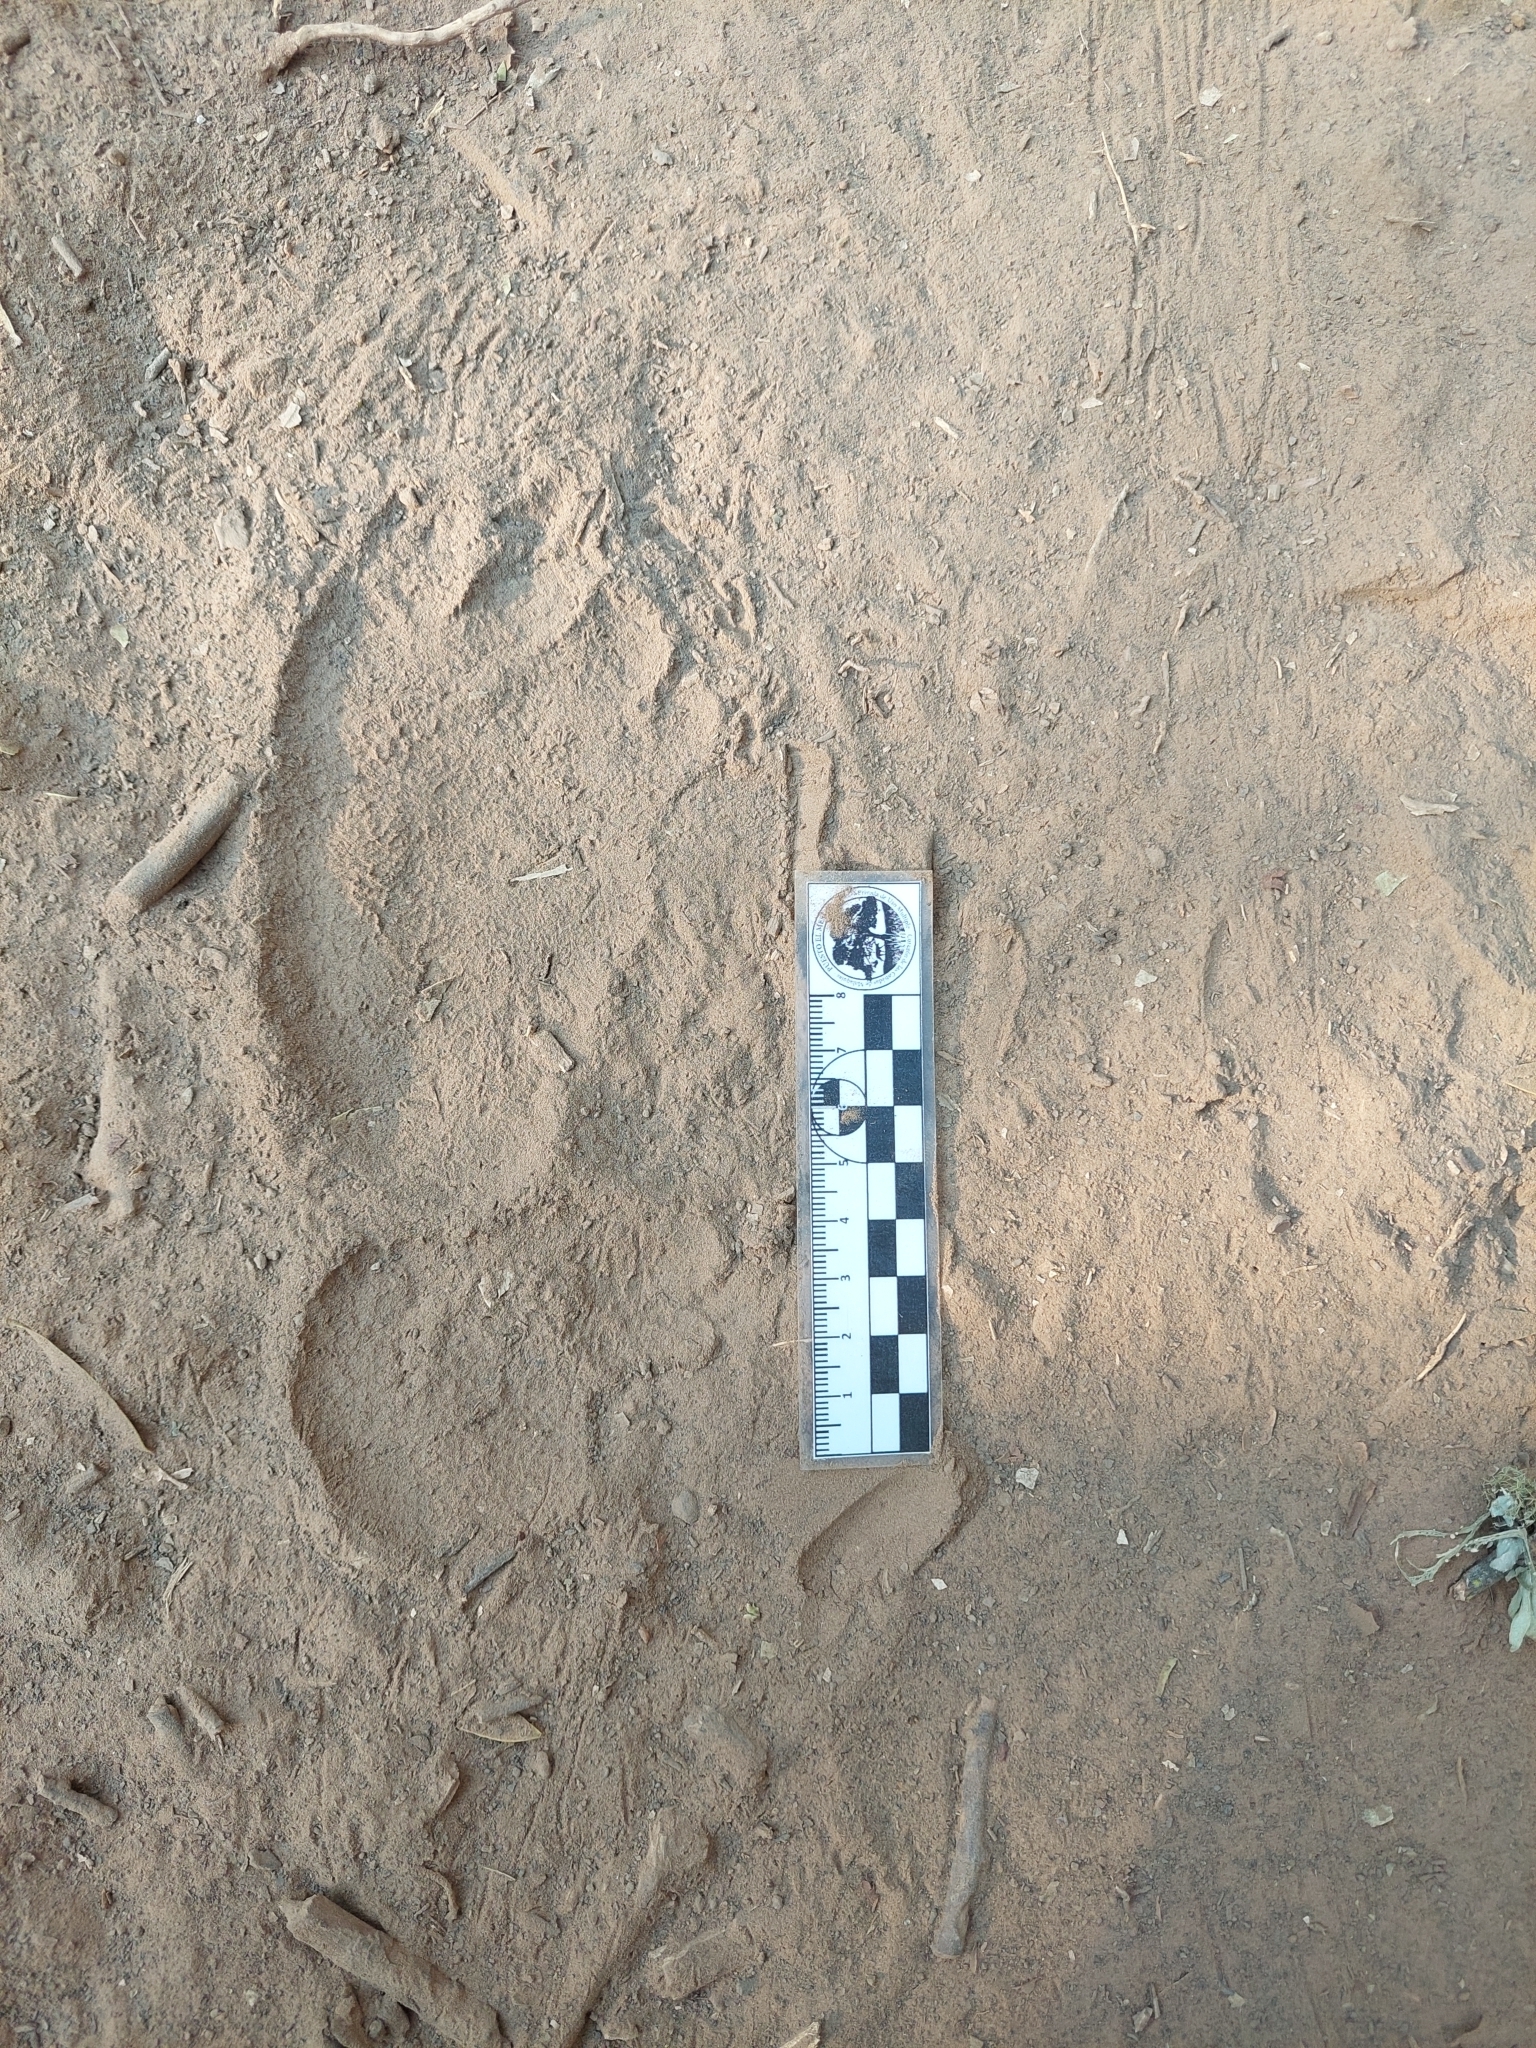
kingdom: Animalia
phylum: Chordata
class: Mammalia
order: Pilosa
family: Myrmecophagidae
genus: Myrmecophaga
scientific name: Myrmecophaga tridactyla
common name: Giant anteater
